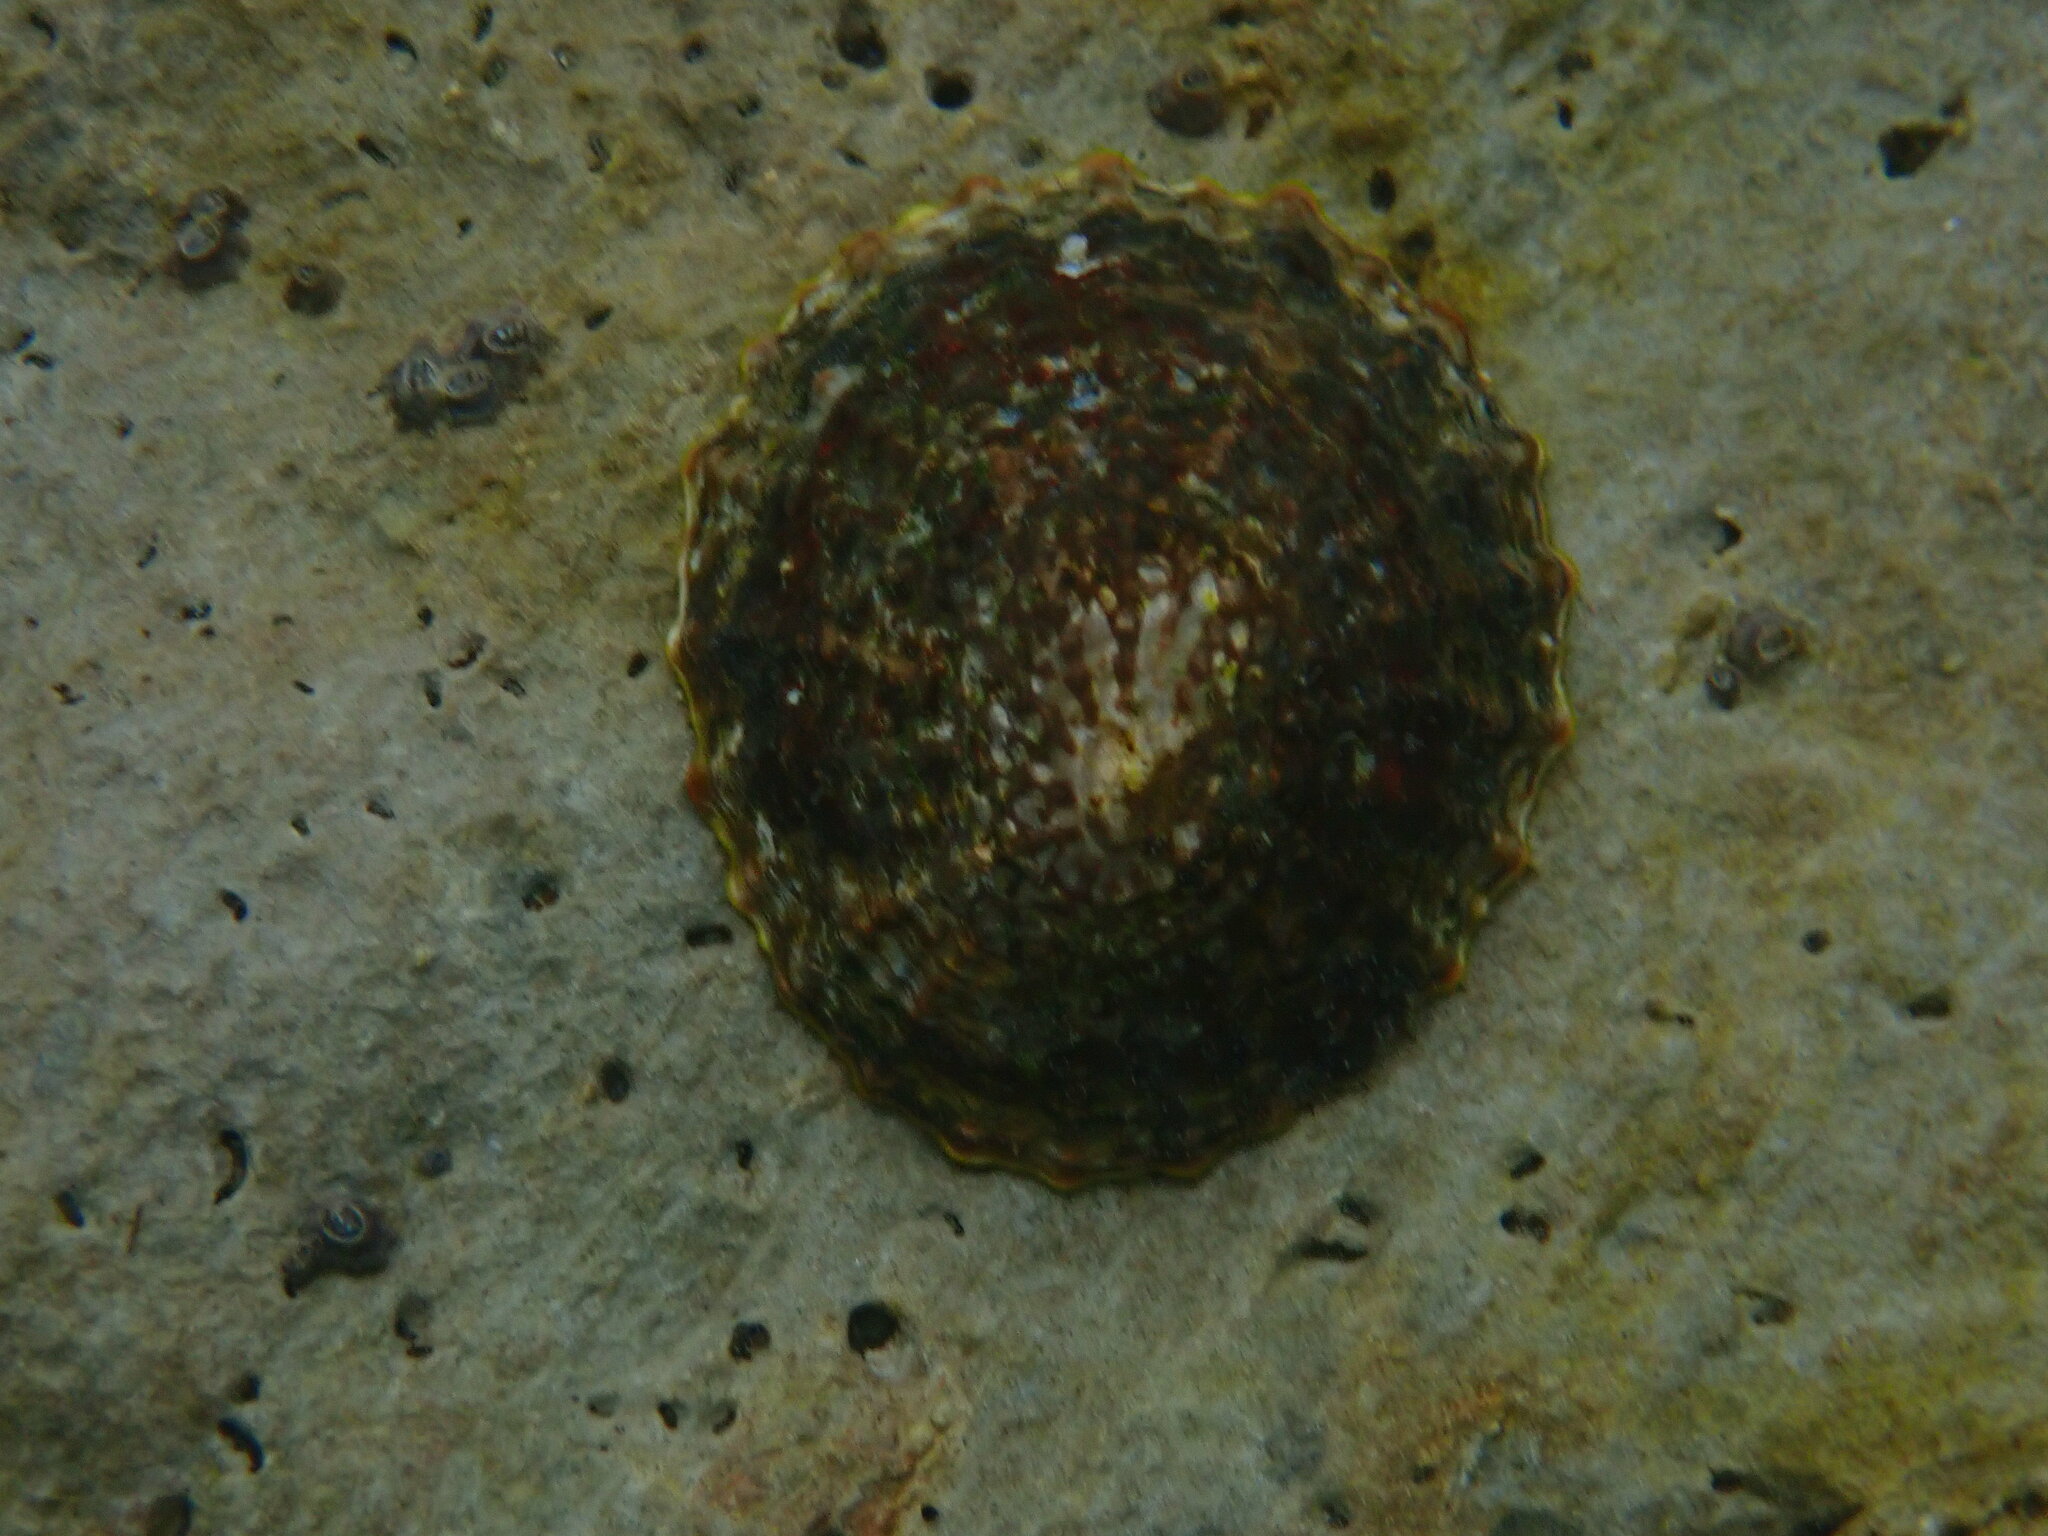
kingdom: Animalia
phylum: Mollusca
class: Gastropoda
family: Nacellidae
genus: Cellana
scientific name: Cellana denticulata
